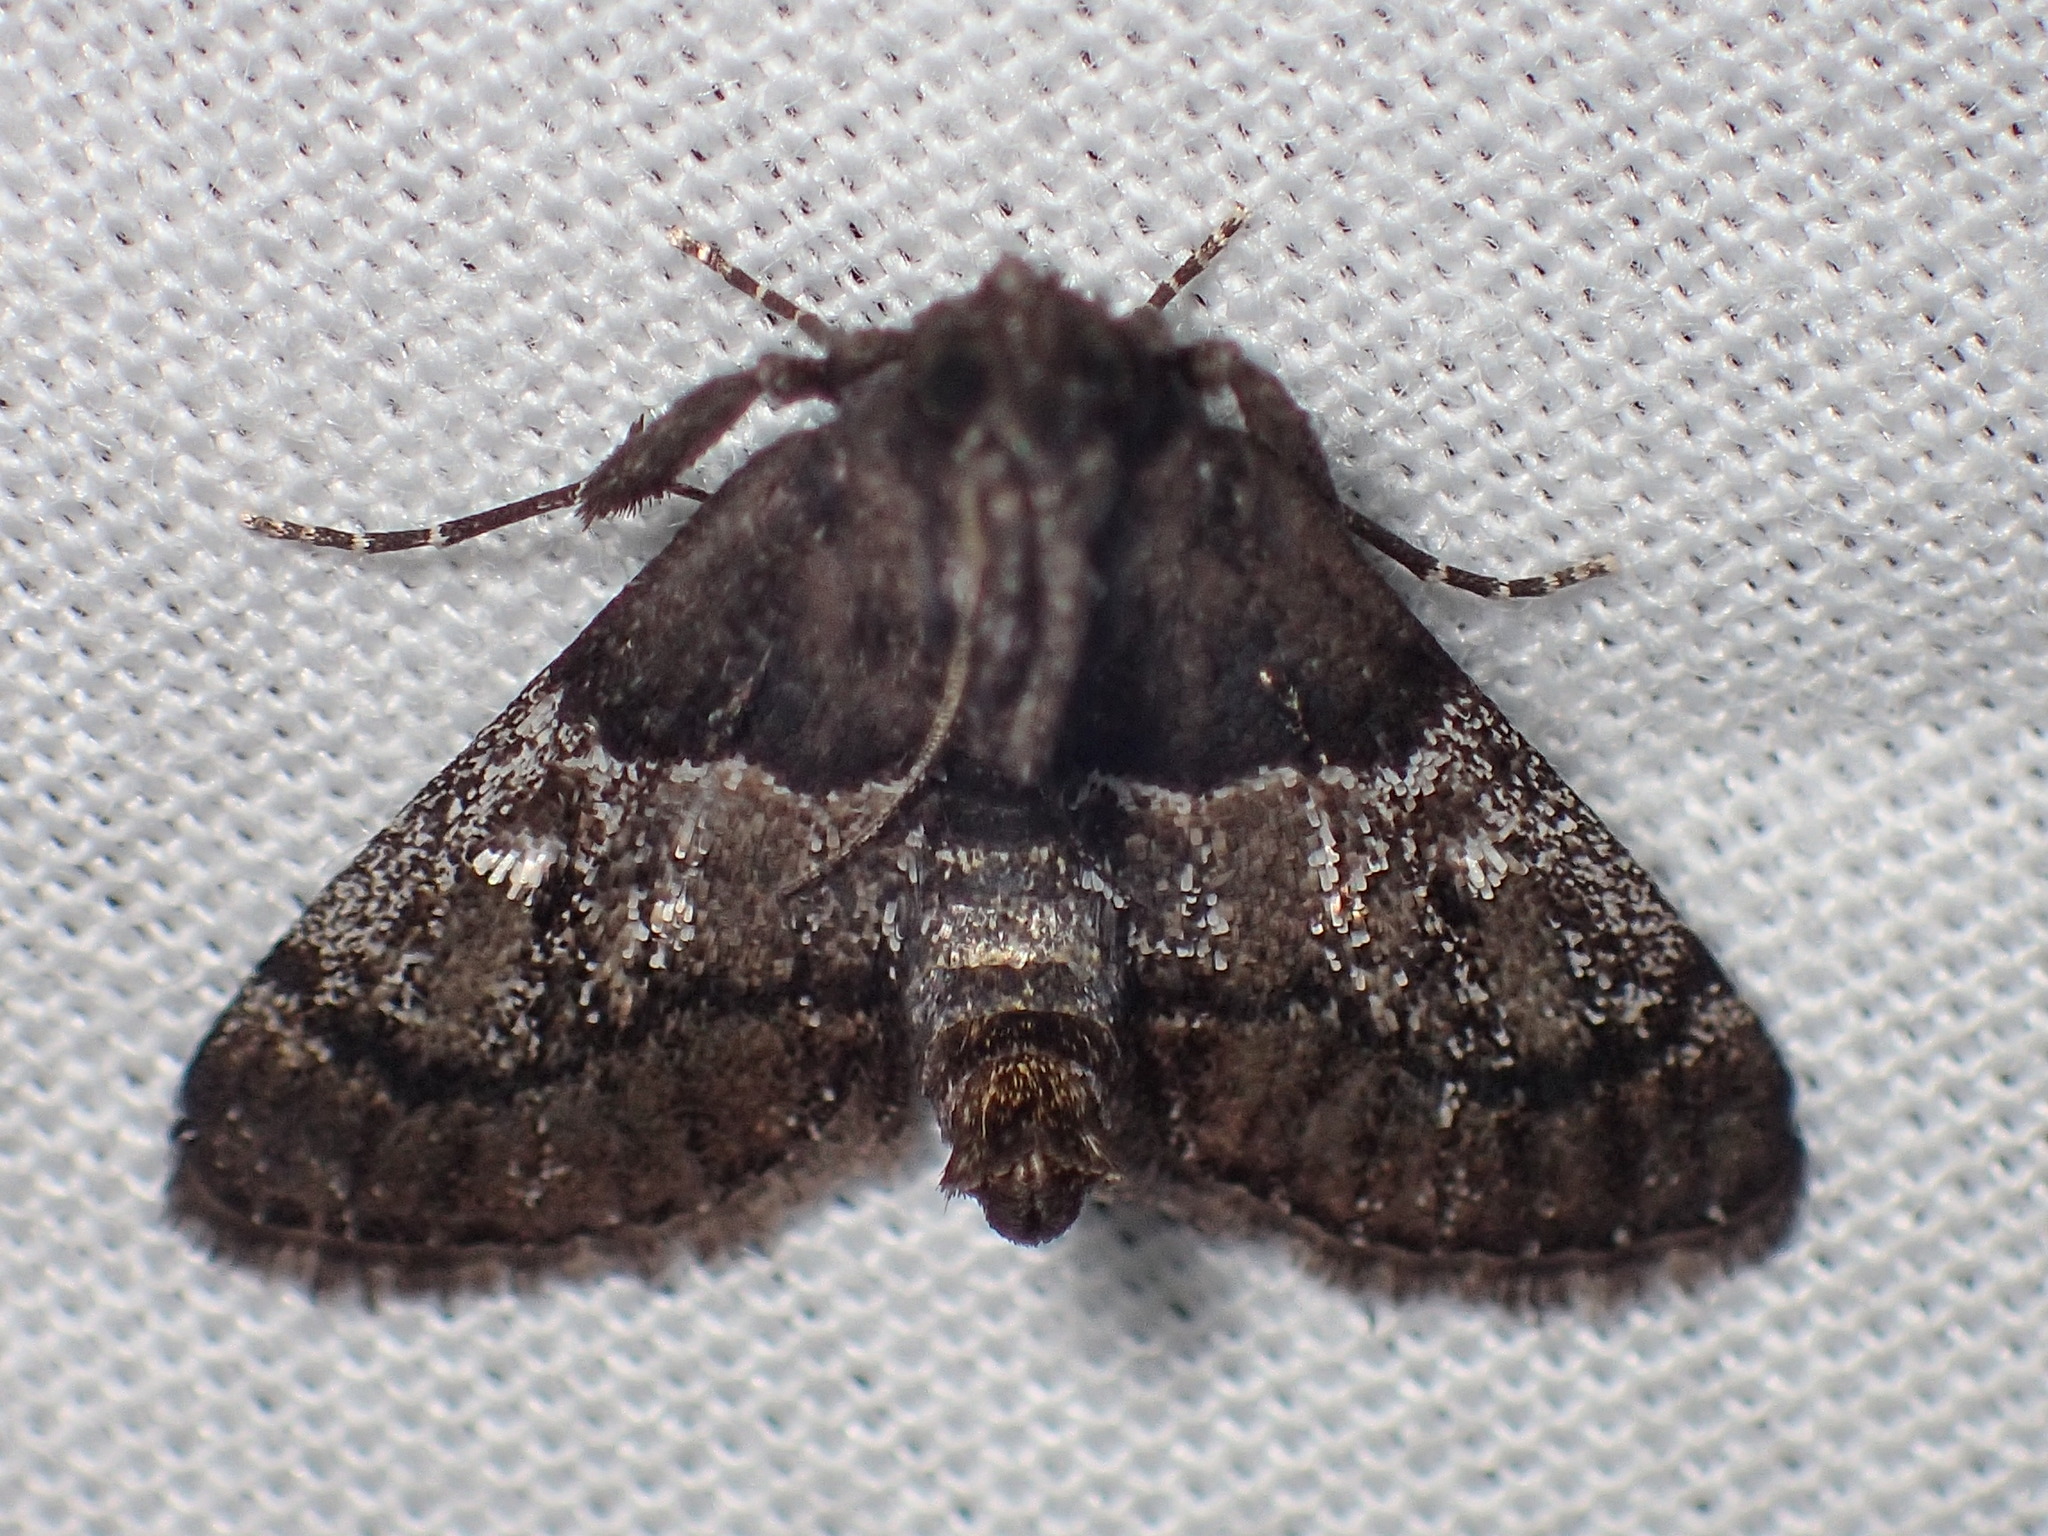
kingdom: Animalia
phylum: Arthropoda
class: Insecta
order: Lepidoptera
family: Pyralidae
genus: Macalla
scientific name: Macalla zelleri
